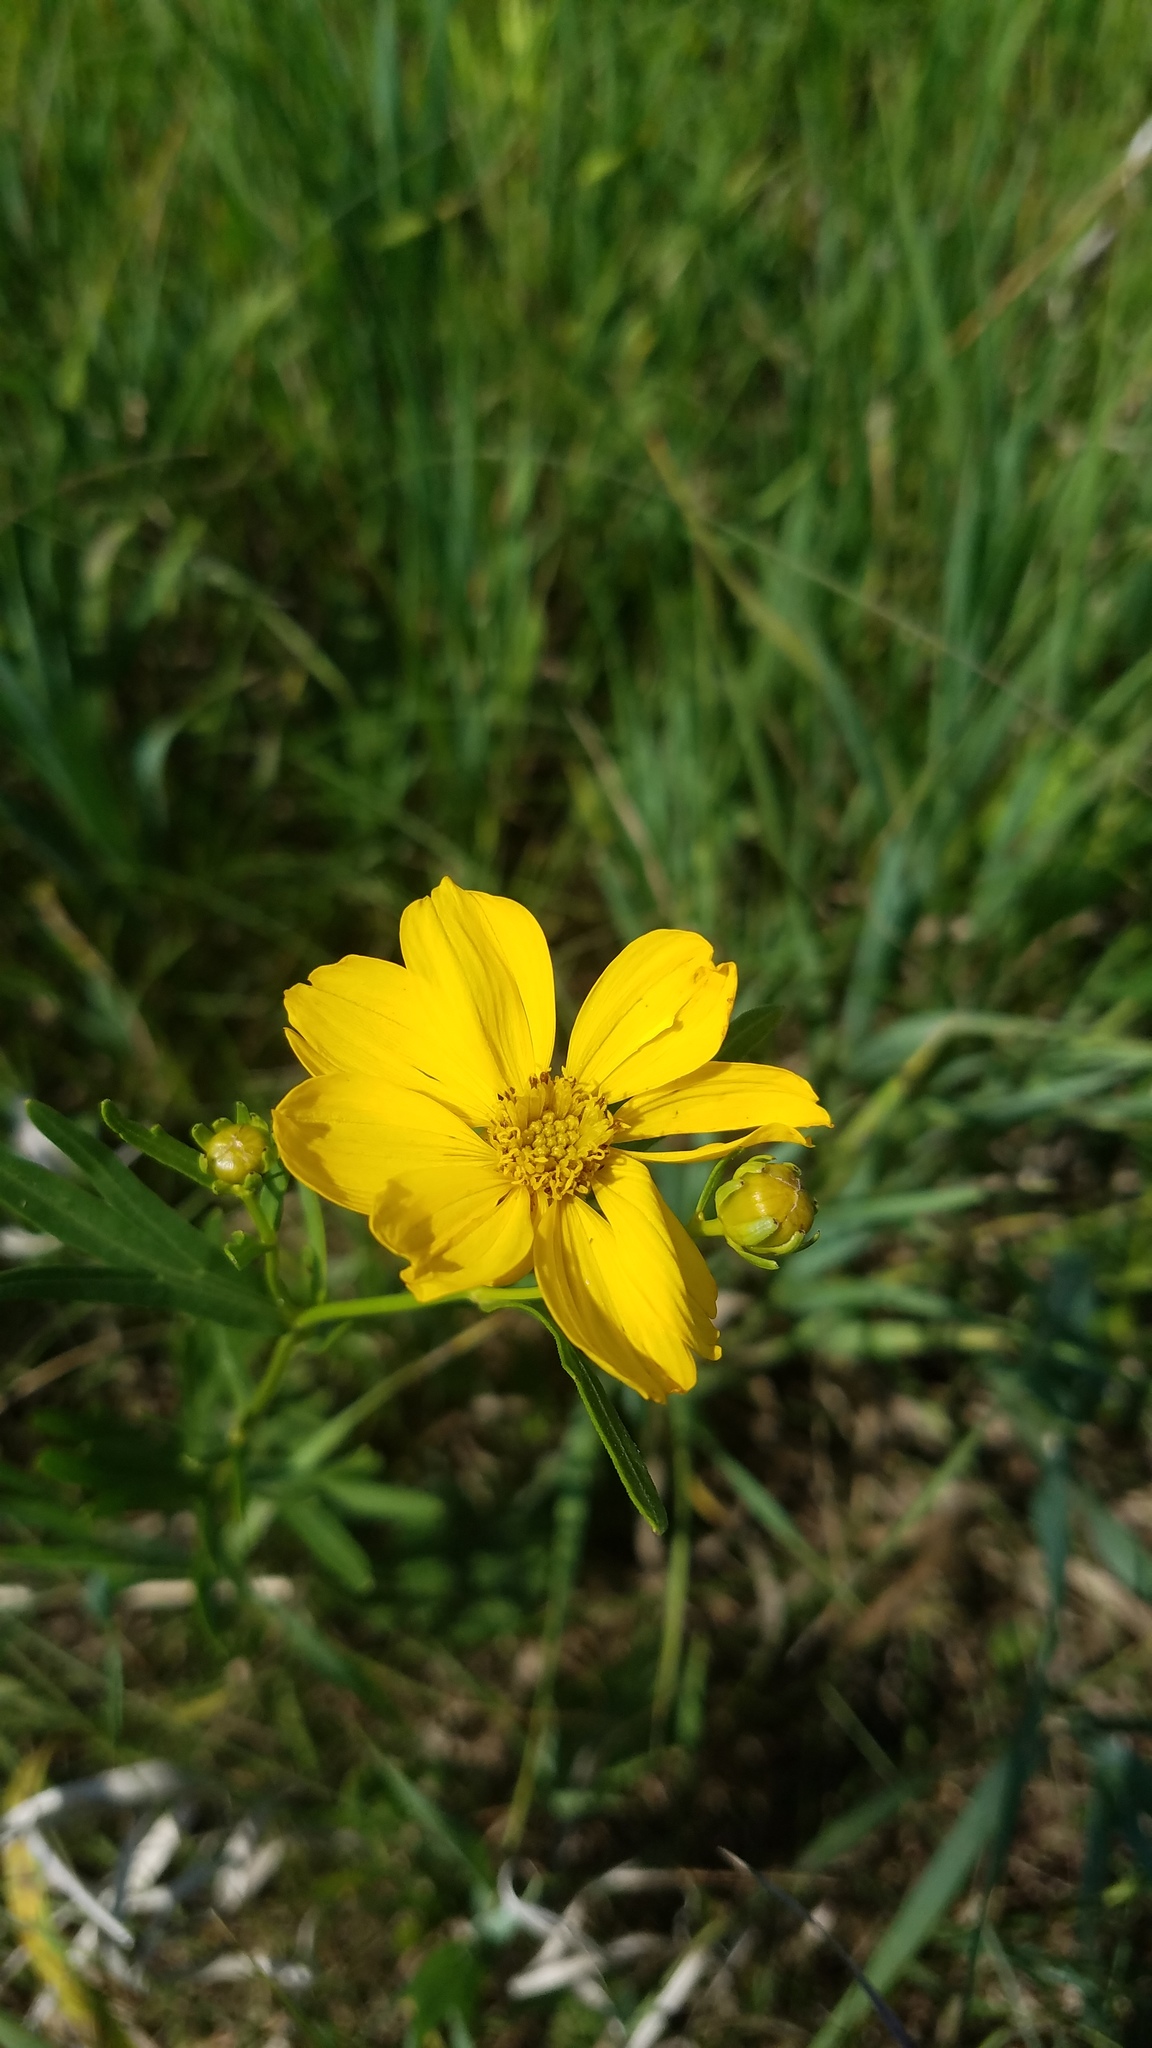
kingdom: Plantae
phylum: Tracheophyta
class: Magnoliopsida
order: Asterales
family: Asteraceae
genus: Coreopsis
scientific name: Coreopsis palmata
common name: Prairie coreopsis
